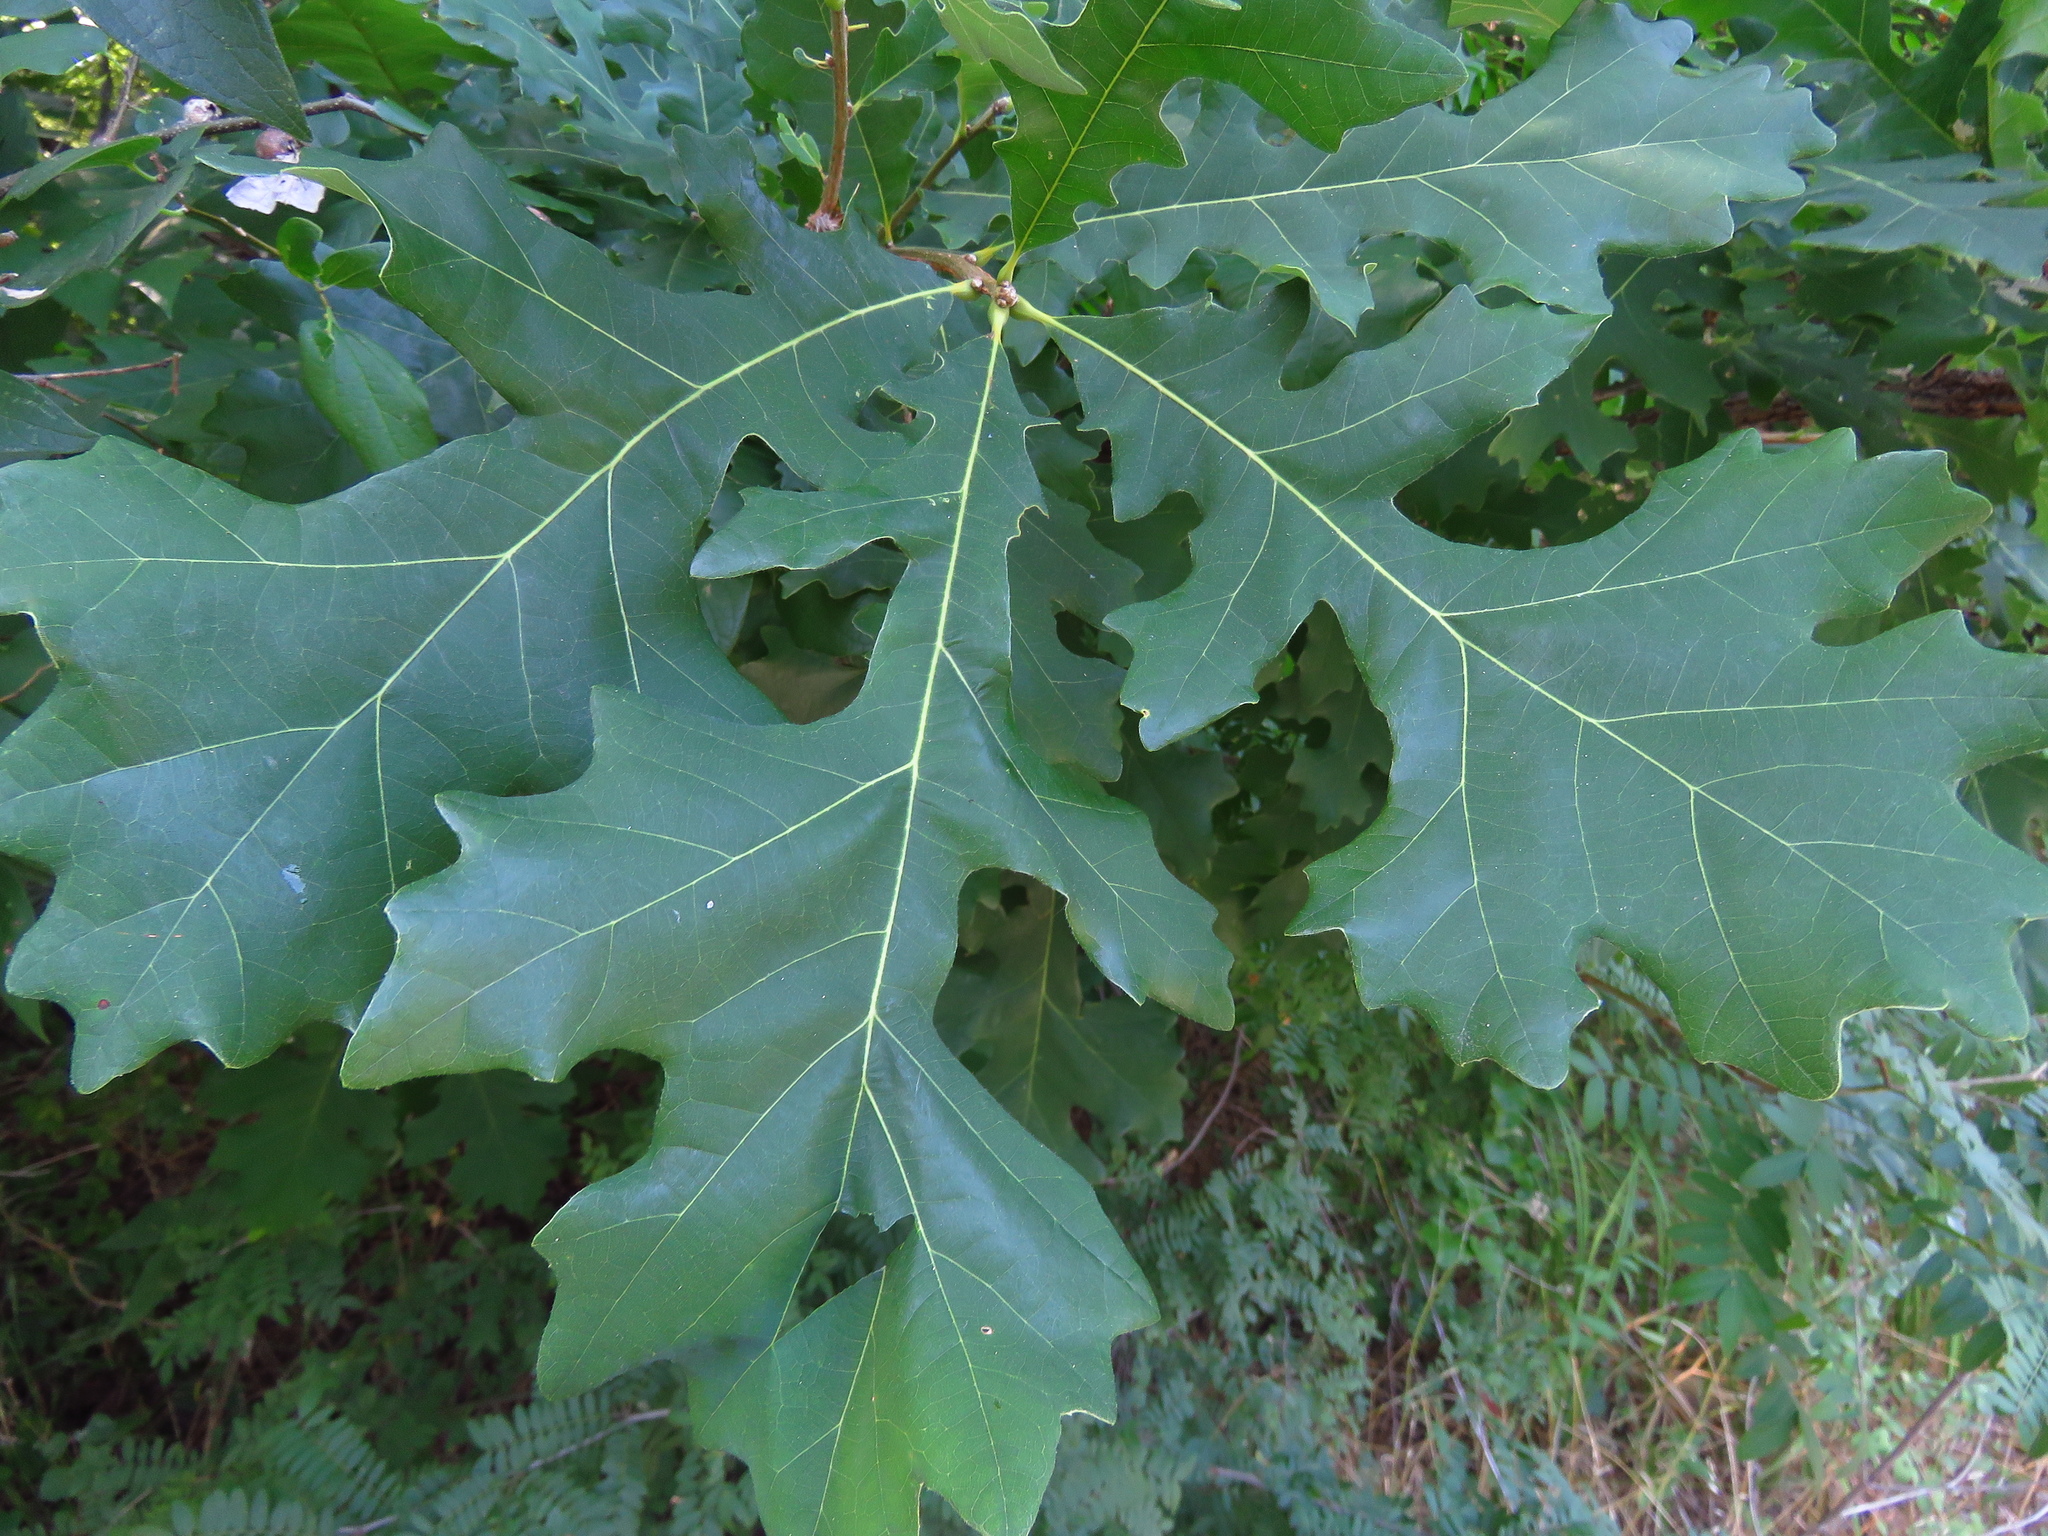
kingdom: Plantae
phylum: Tracheophyta
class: Magnoliopsida
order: Fagales
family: Fagaceae
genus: Quercus
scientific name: Quercus macrocarpa
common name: Bur oak
